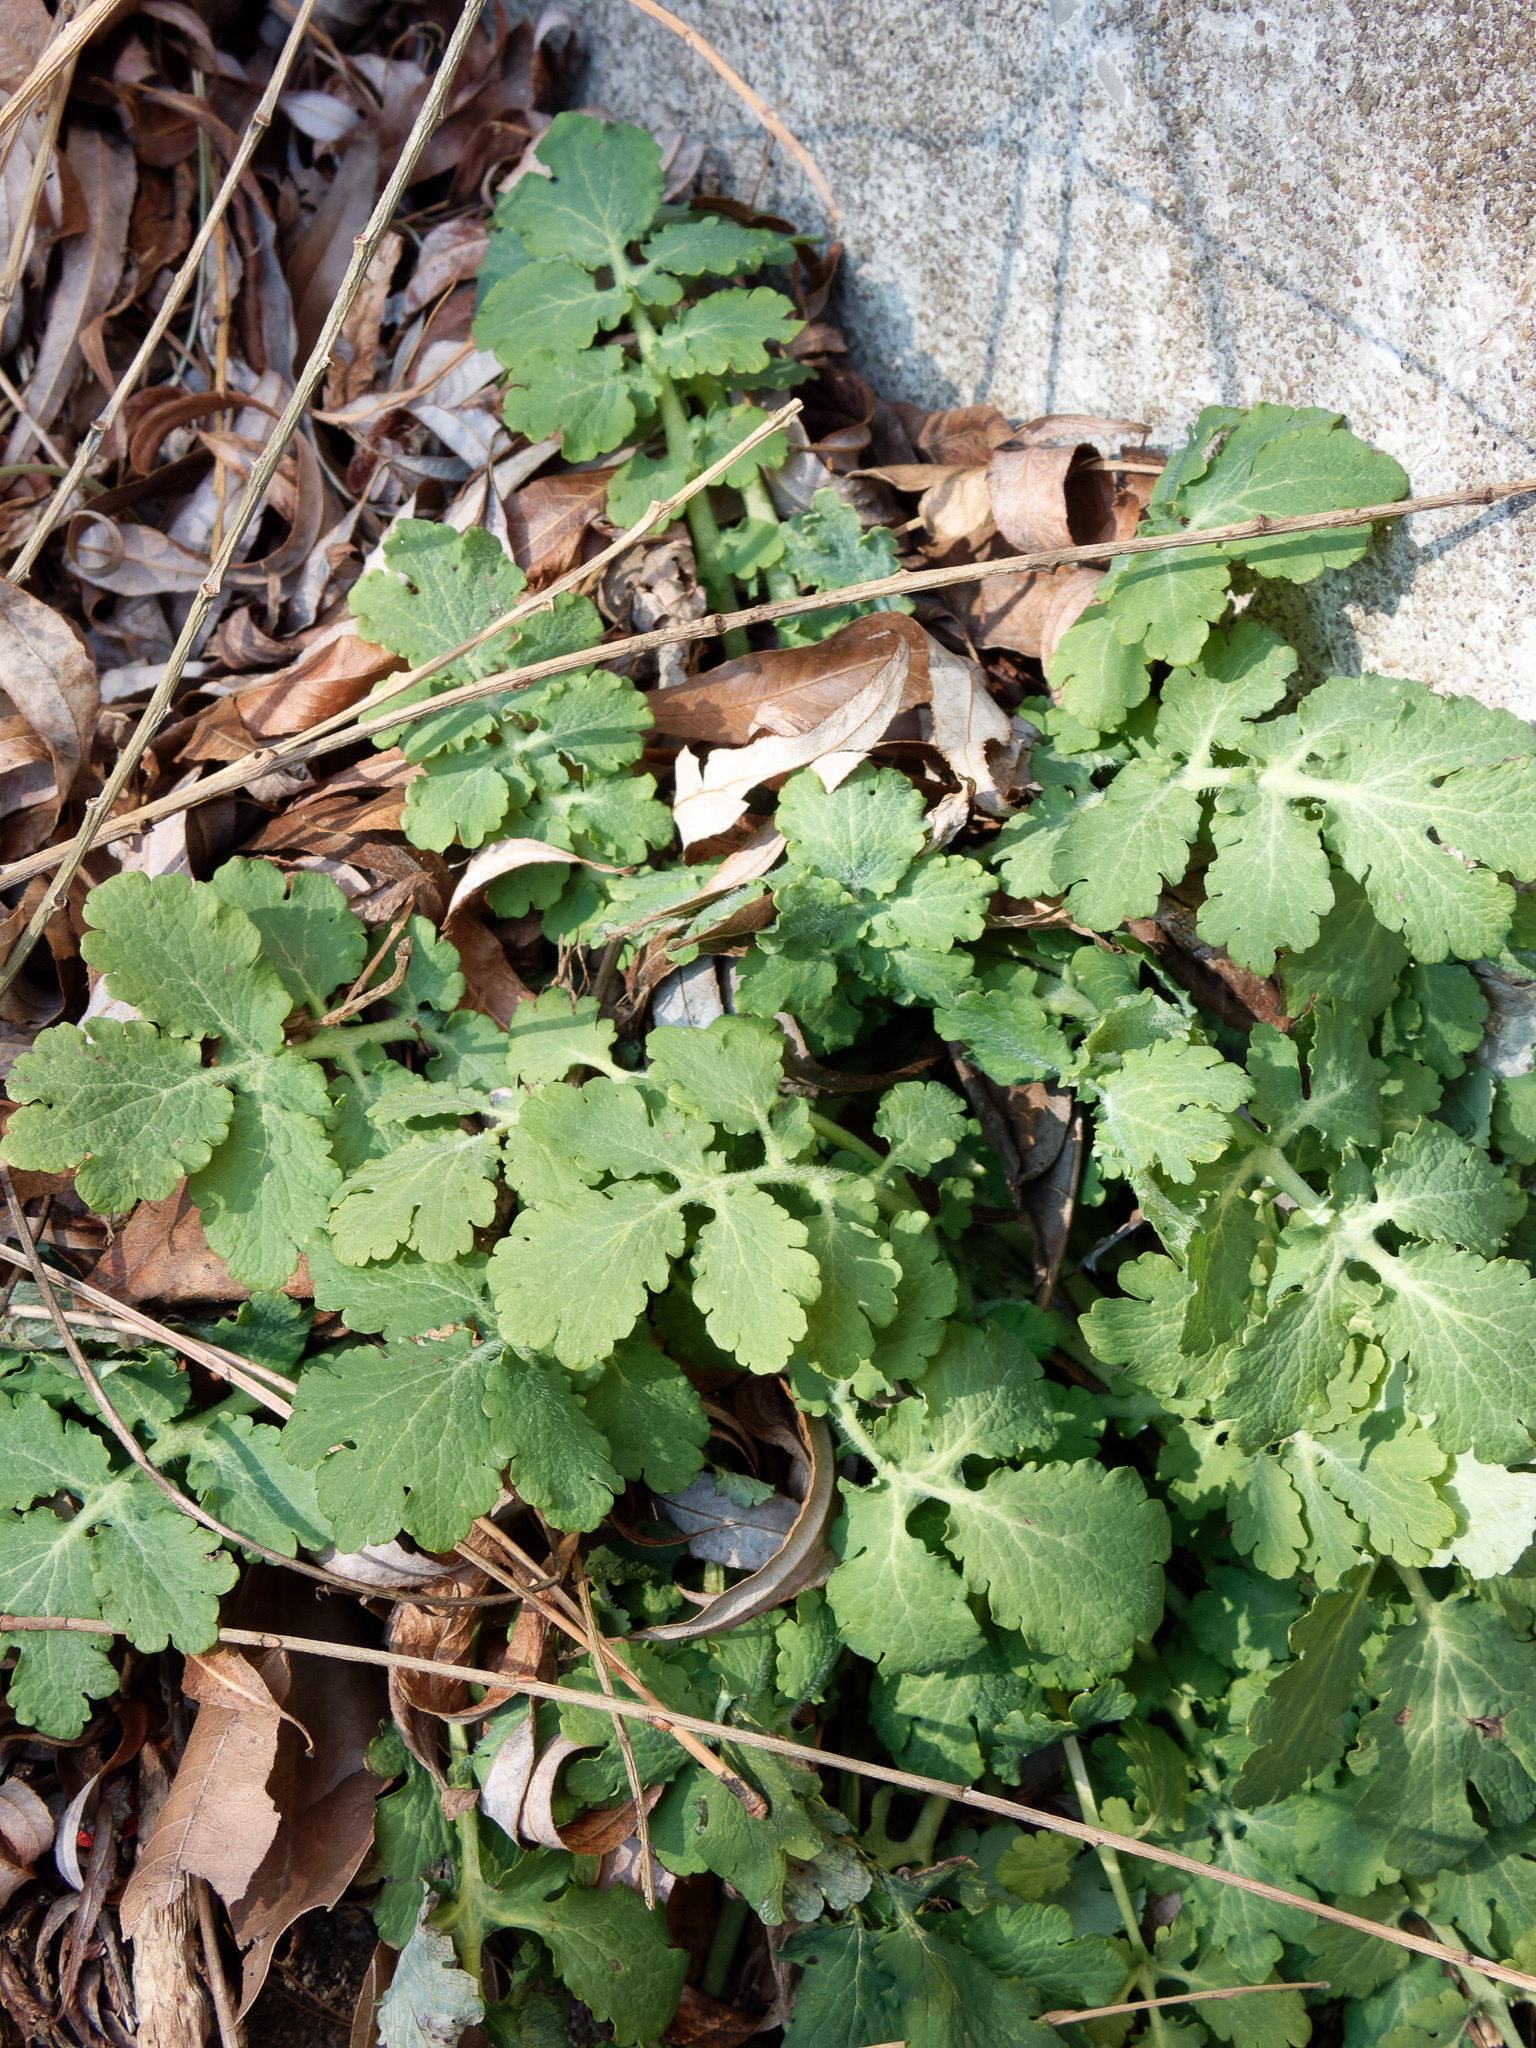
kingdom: Plantae
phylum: Tracheophyta
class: Magnoliopsida
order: Ranunculales
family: Papaveraceae
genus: Chelidonium
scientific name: Chelidonium majus
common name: Greater celandine
